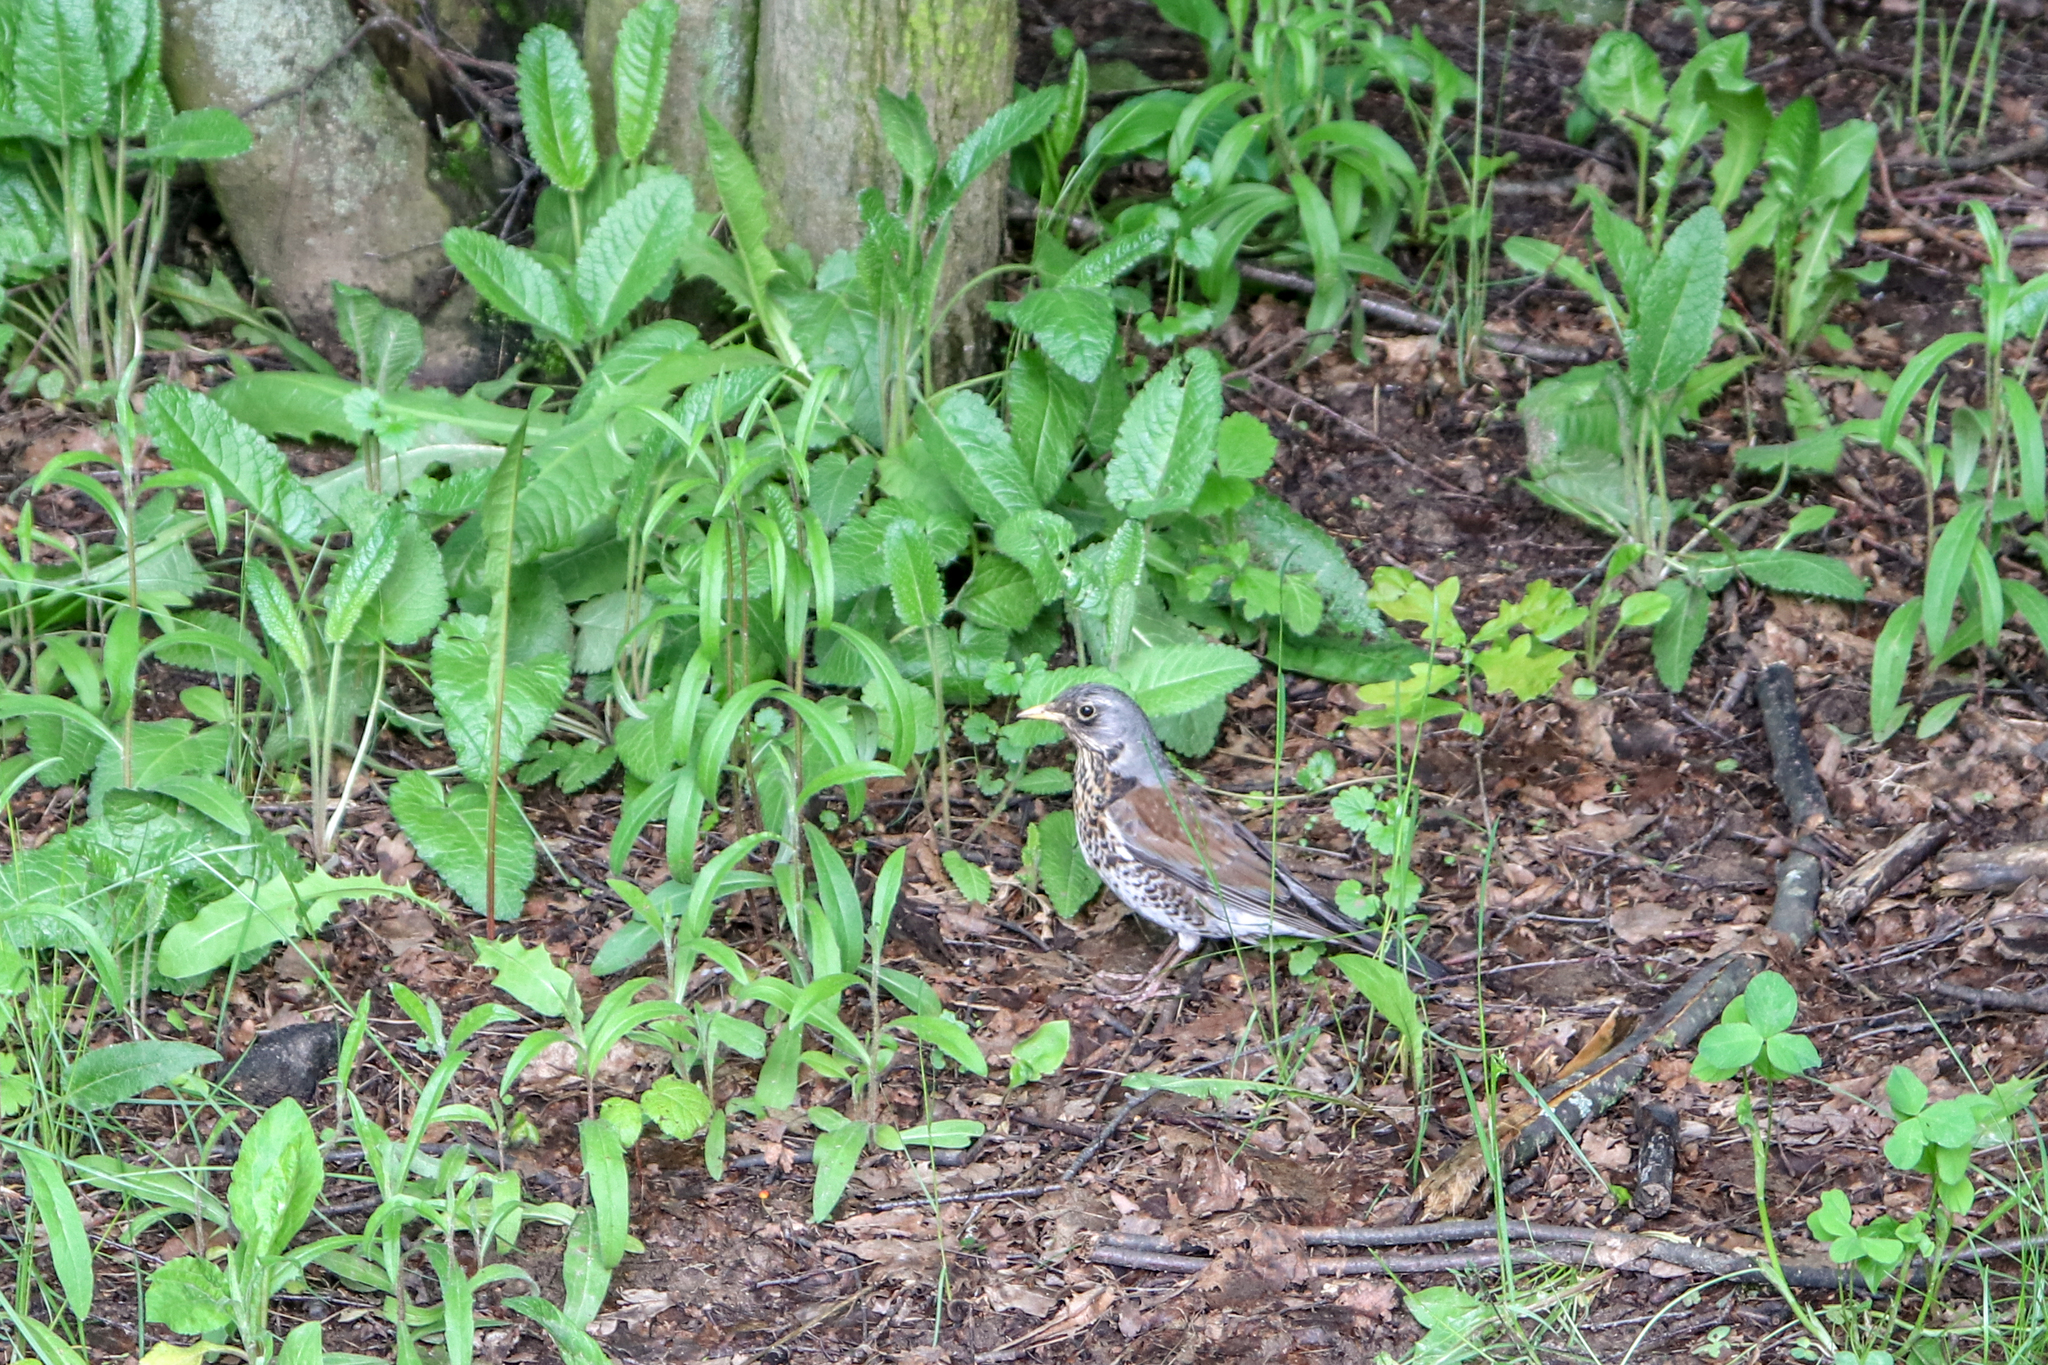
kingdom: Animalia
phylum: Chordata
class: Aves
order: Passeriformes
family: Turdidae
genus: Turdus
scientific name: Turdus pilaris
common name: Fieldfare
